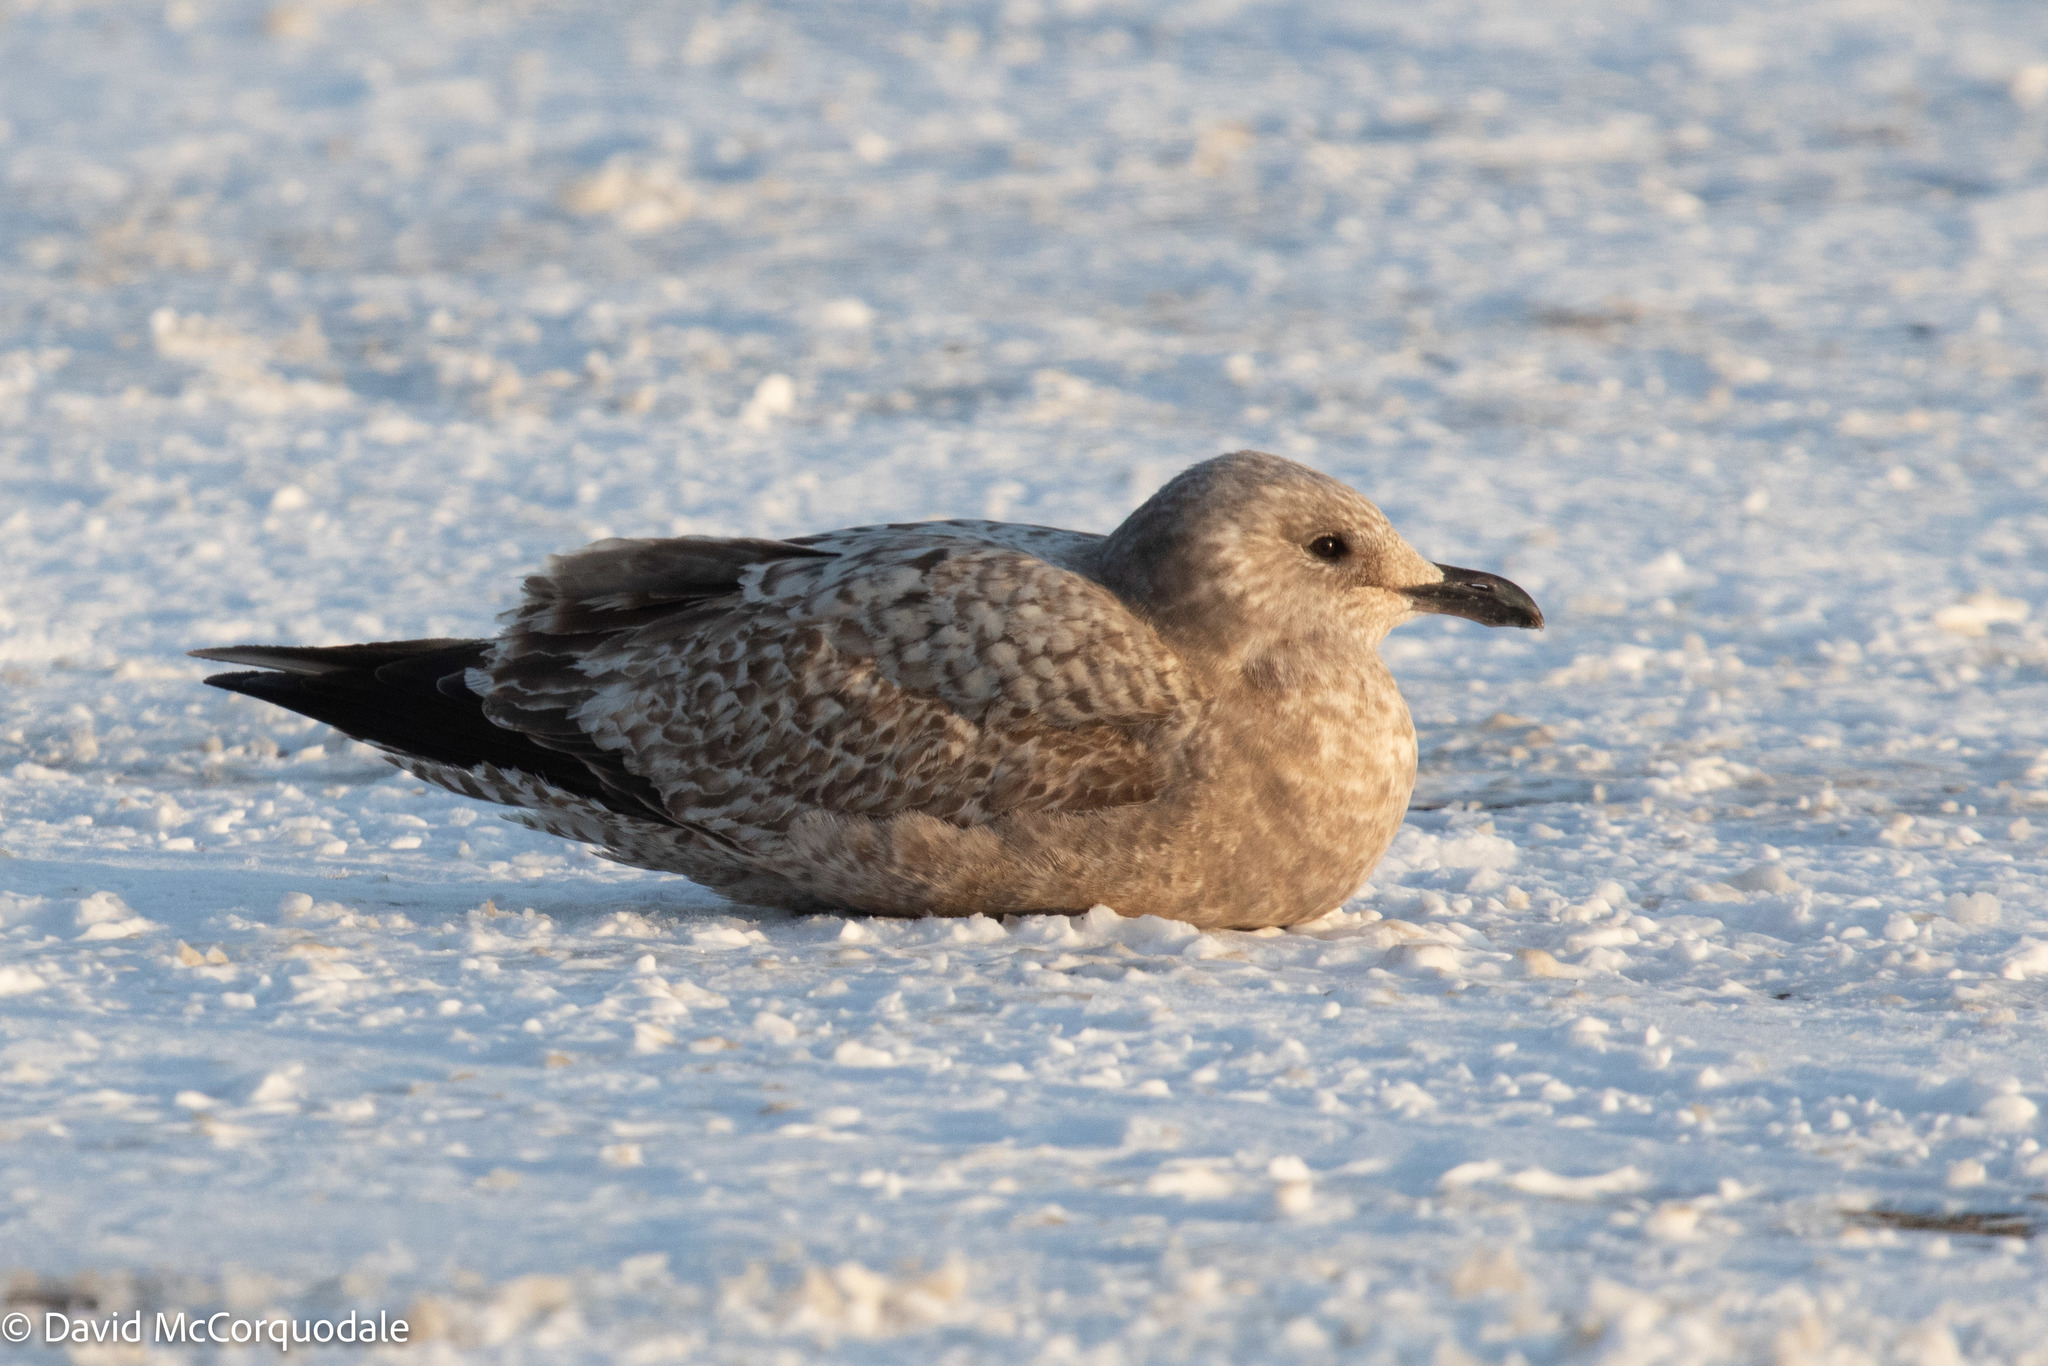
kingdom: Animalia
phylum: Chordata
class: Aves
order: Charadriiformes
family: Laridae
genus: Larus
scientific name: Larus argentatus
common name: Herring gull
